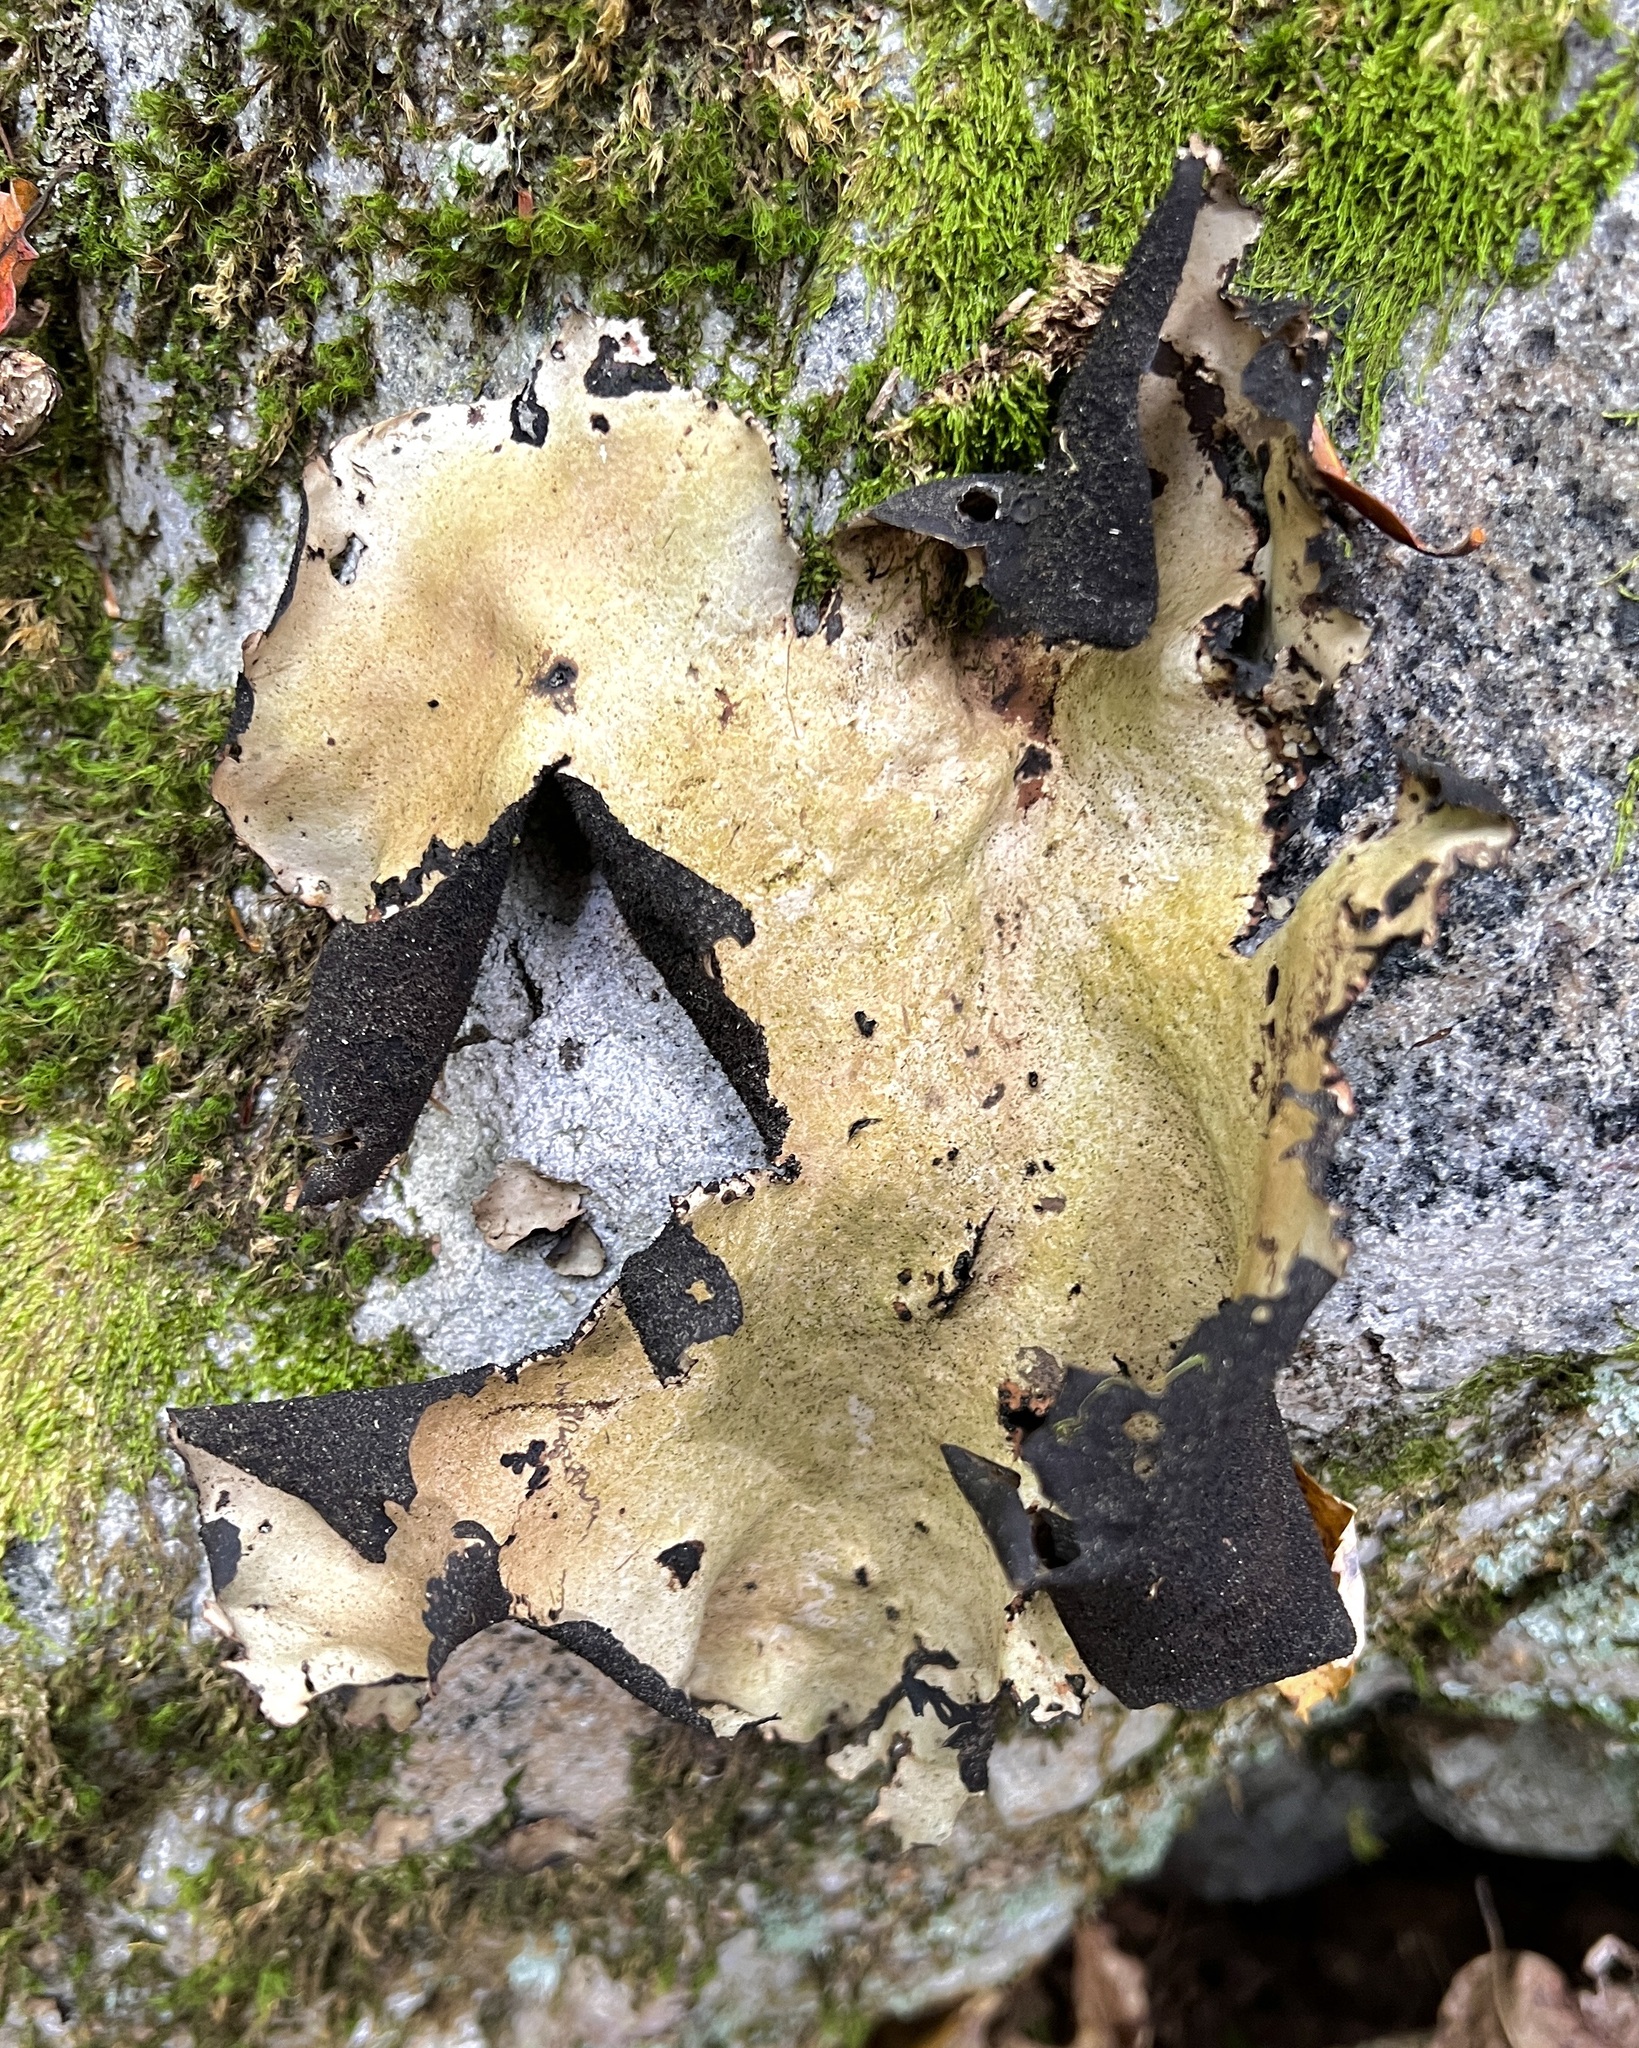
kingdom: Fungi
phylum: Ascomycota
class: Lecanoromycetes
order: Umbilicariales
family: Umbilicariaceae
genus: Umbilicaria
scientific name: Umbilicaria mammulata
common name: Smooth rock tripe
